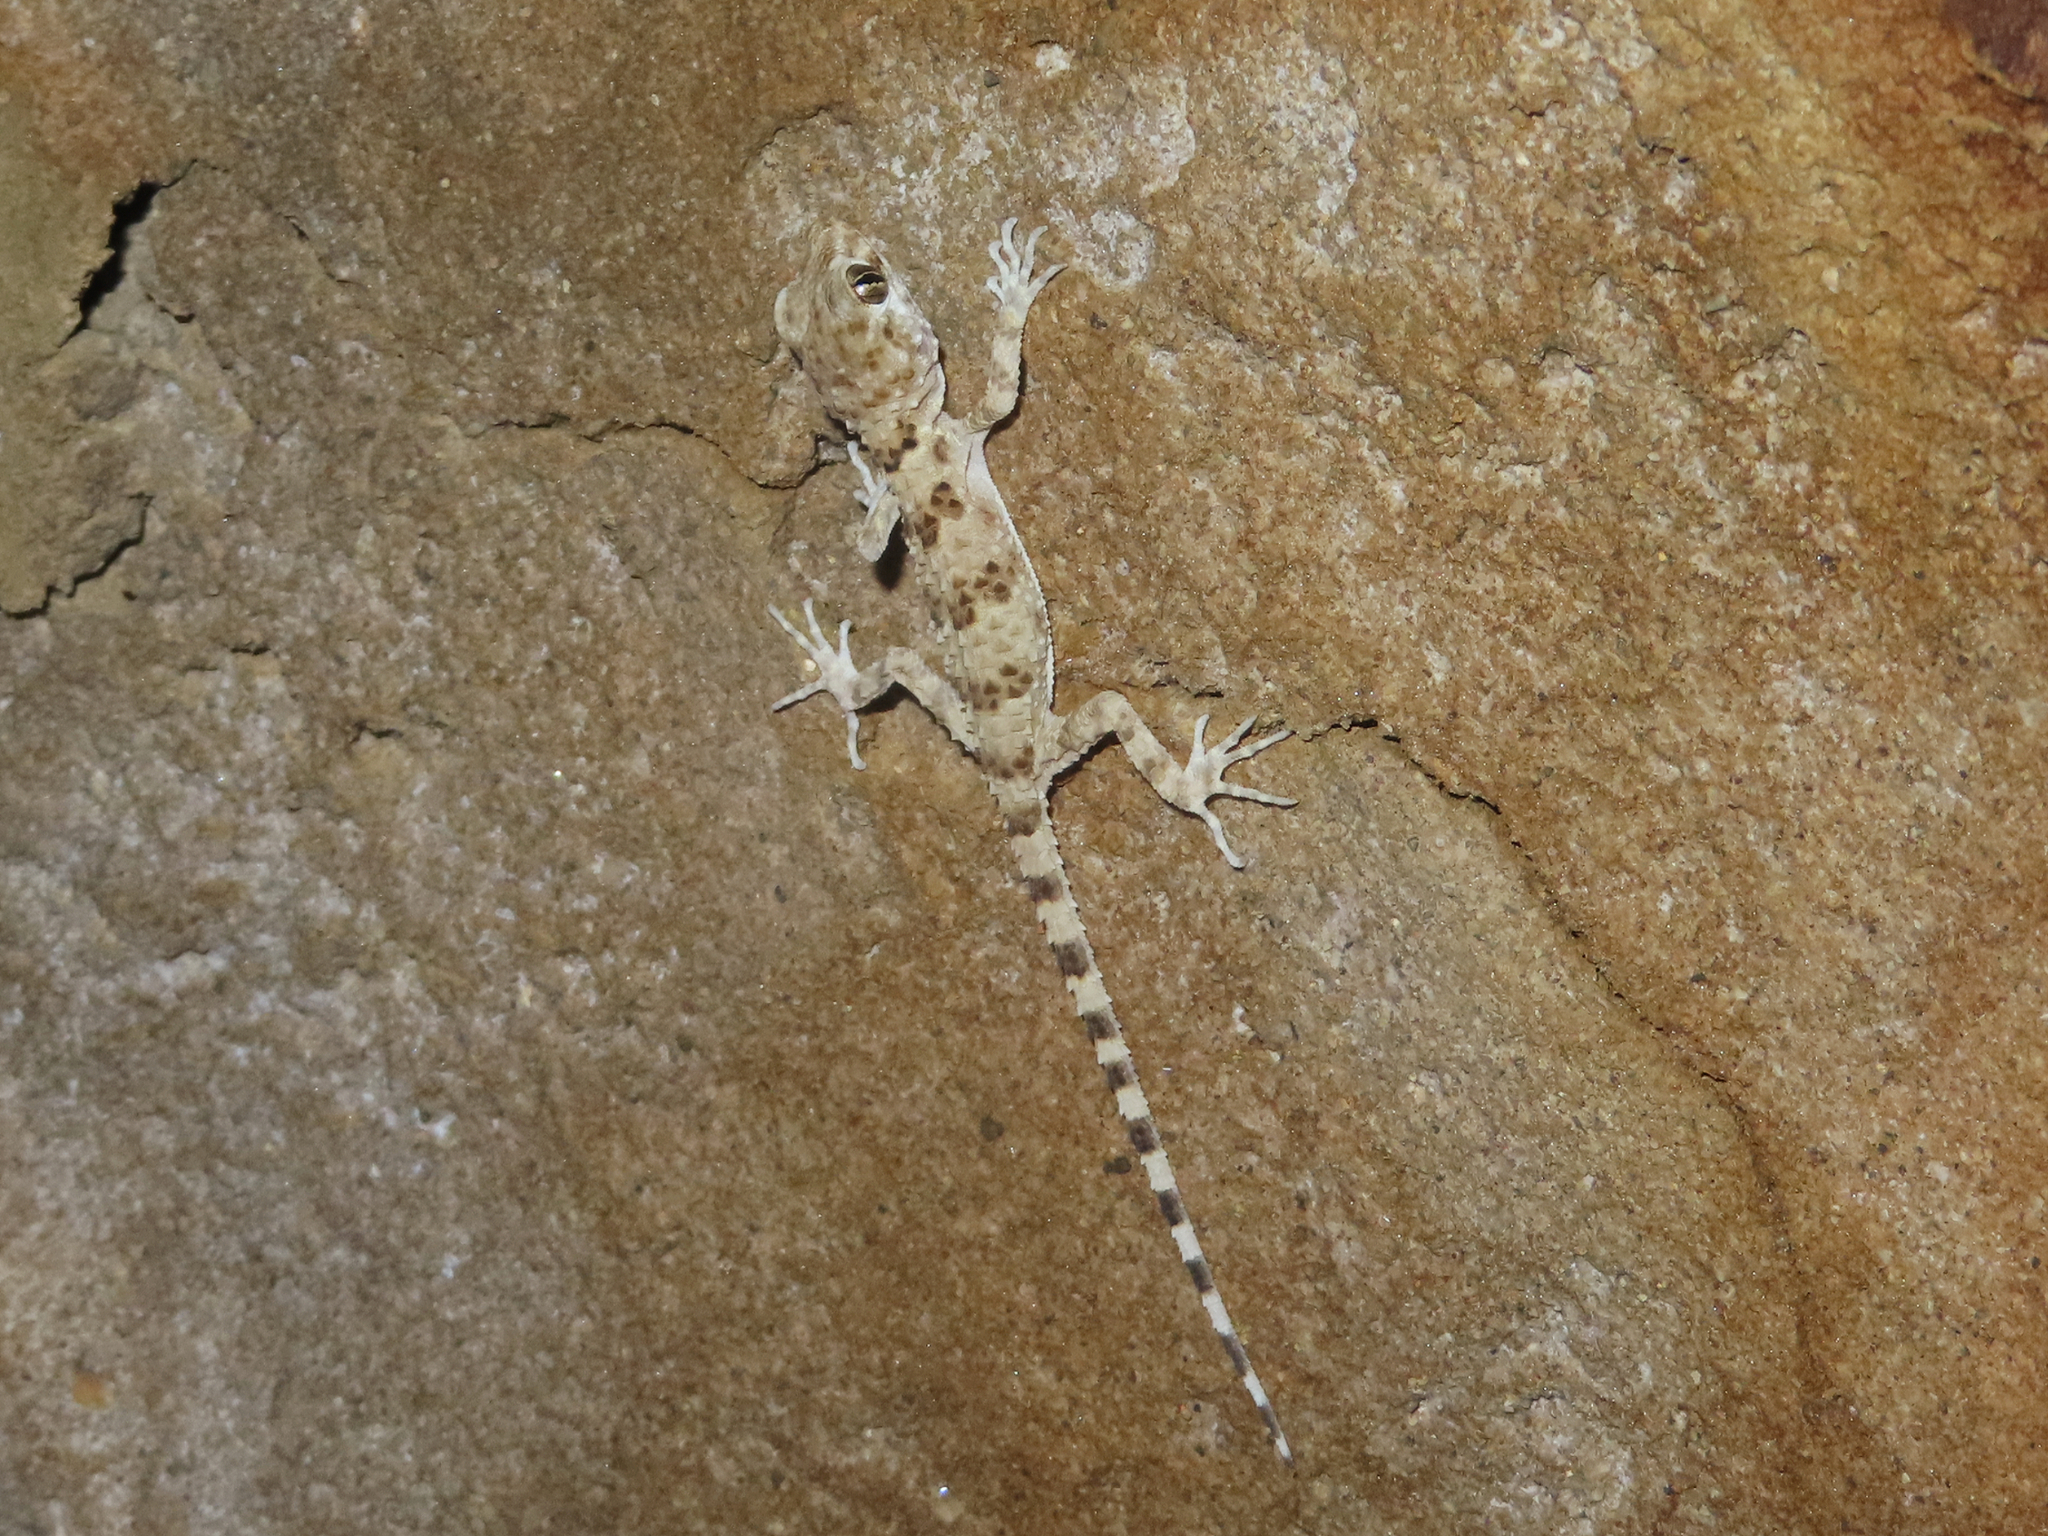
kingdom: Animalia
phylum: Chordata
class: Squamata
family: Gekkonidae
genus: Tenuidactylus
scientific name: Tenuidactylus caspius
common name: Caspian bent-toed gecko
